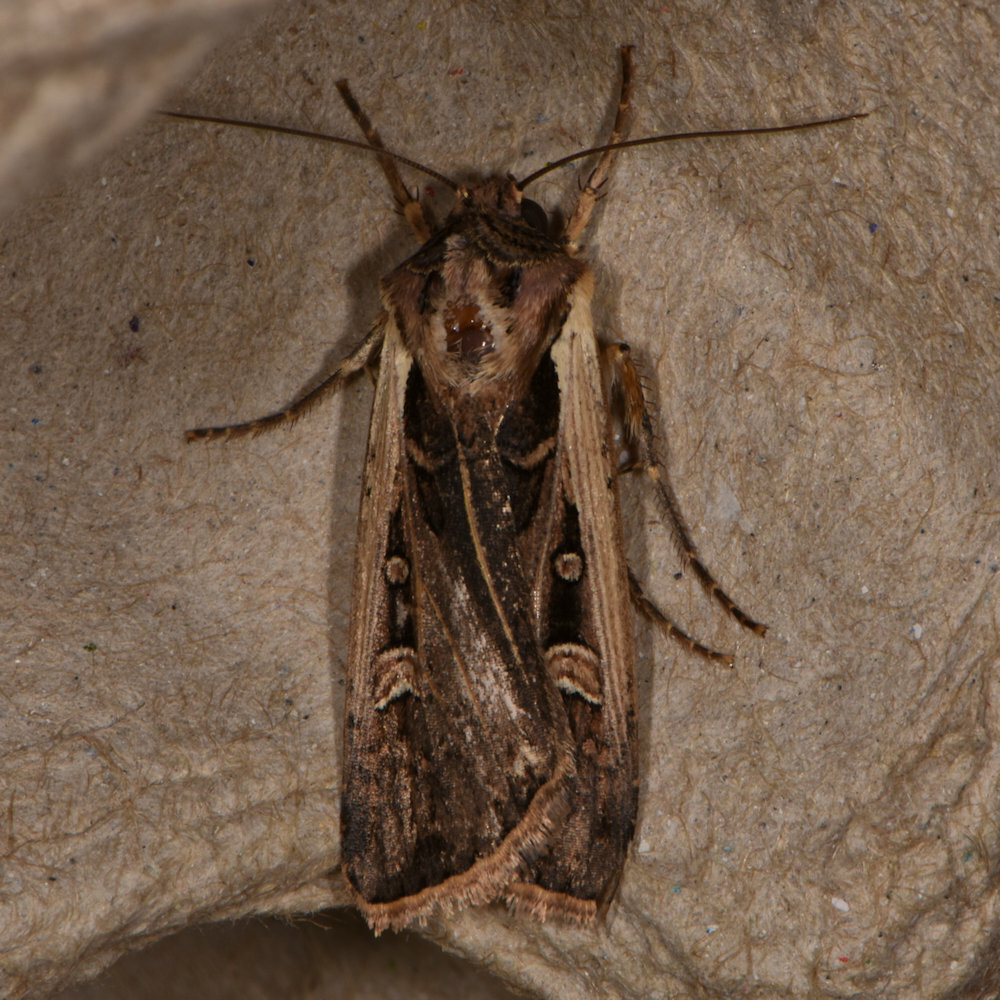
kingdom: Animalia
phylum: Arthropoda
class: Insecta
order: Lepidoptera
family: Noctuidae
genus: Striacosta
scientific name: Striacosta albicosta
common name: Western bean cutworm moth
